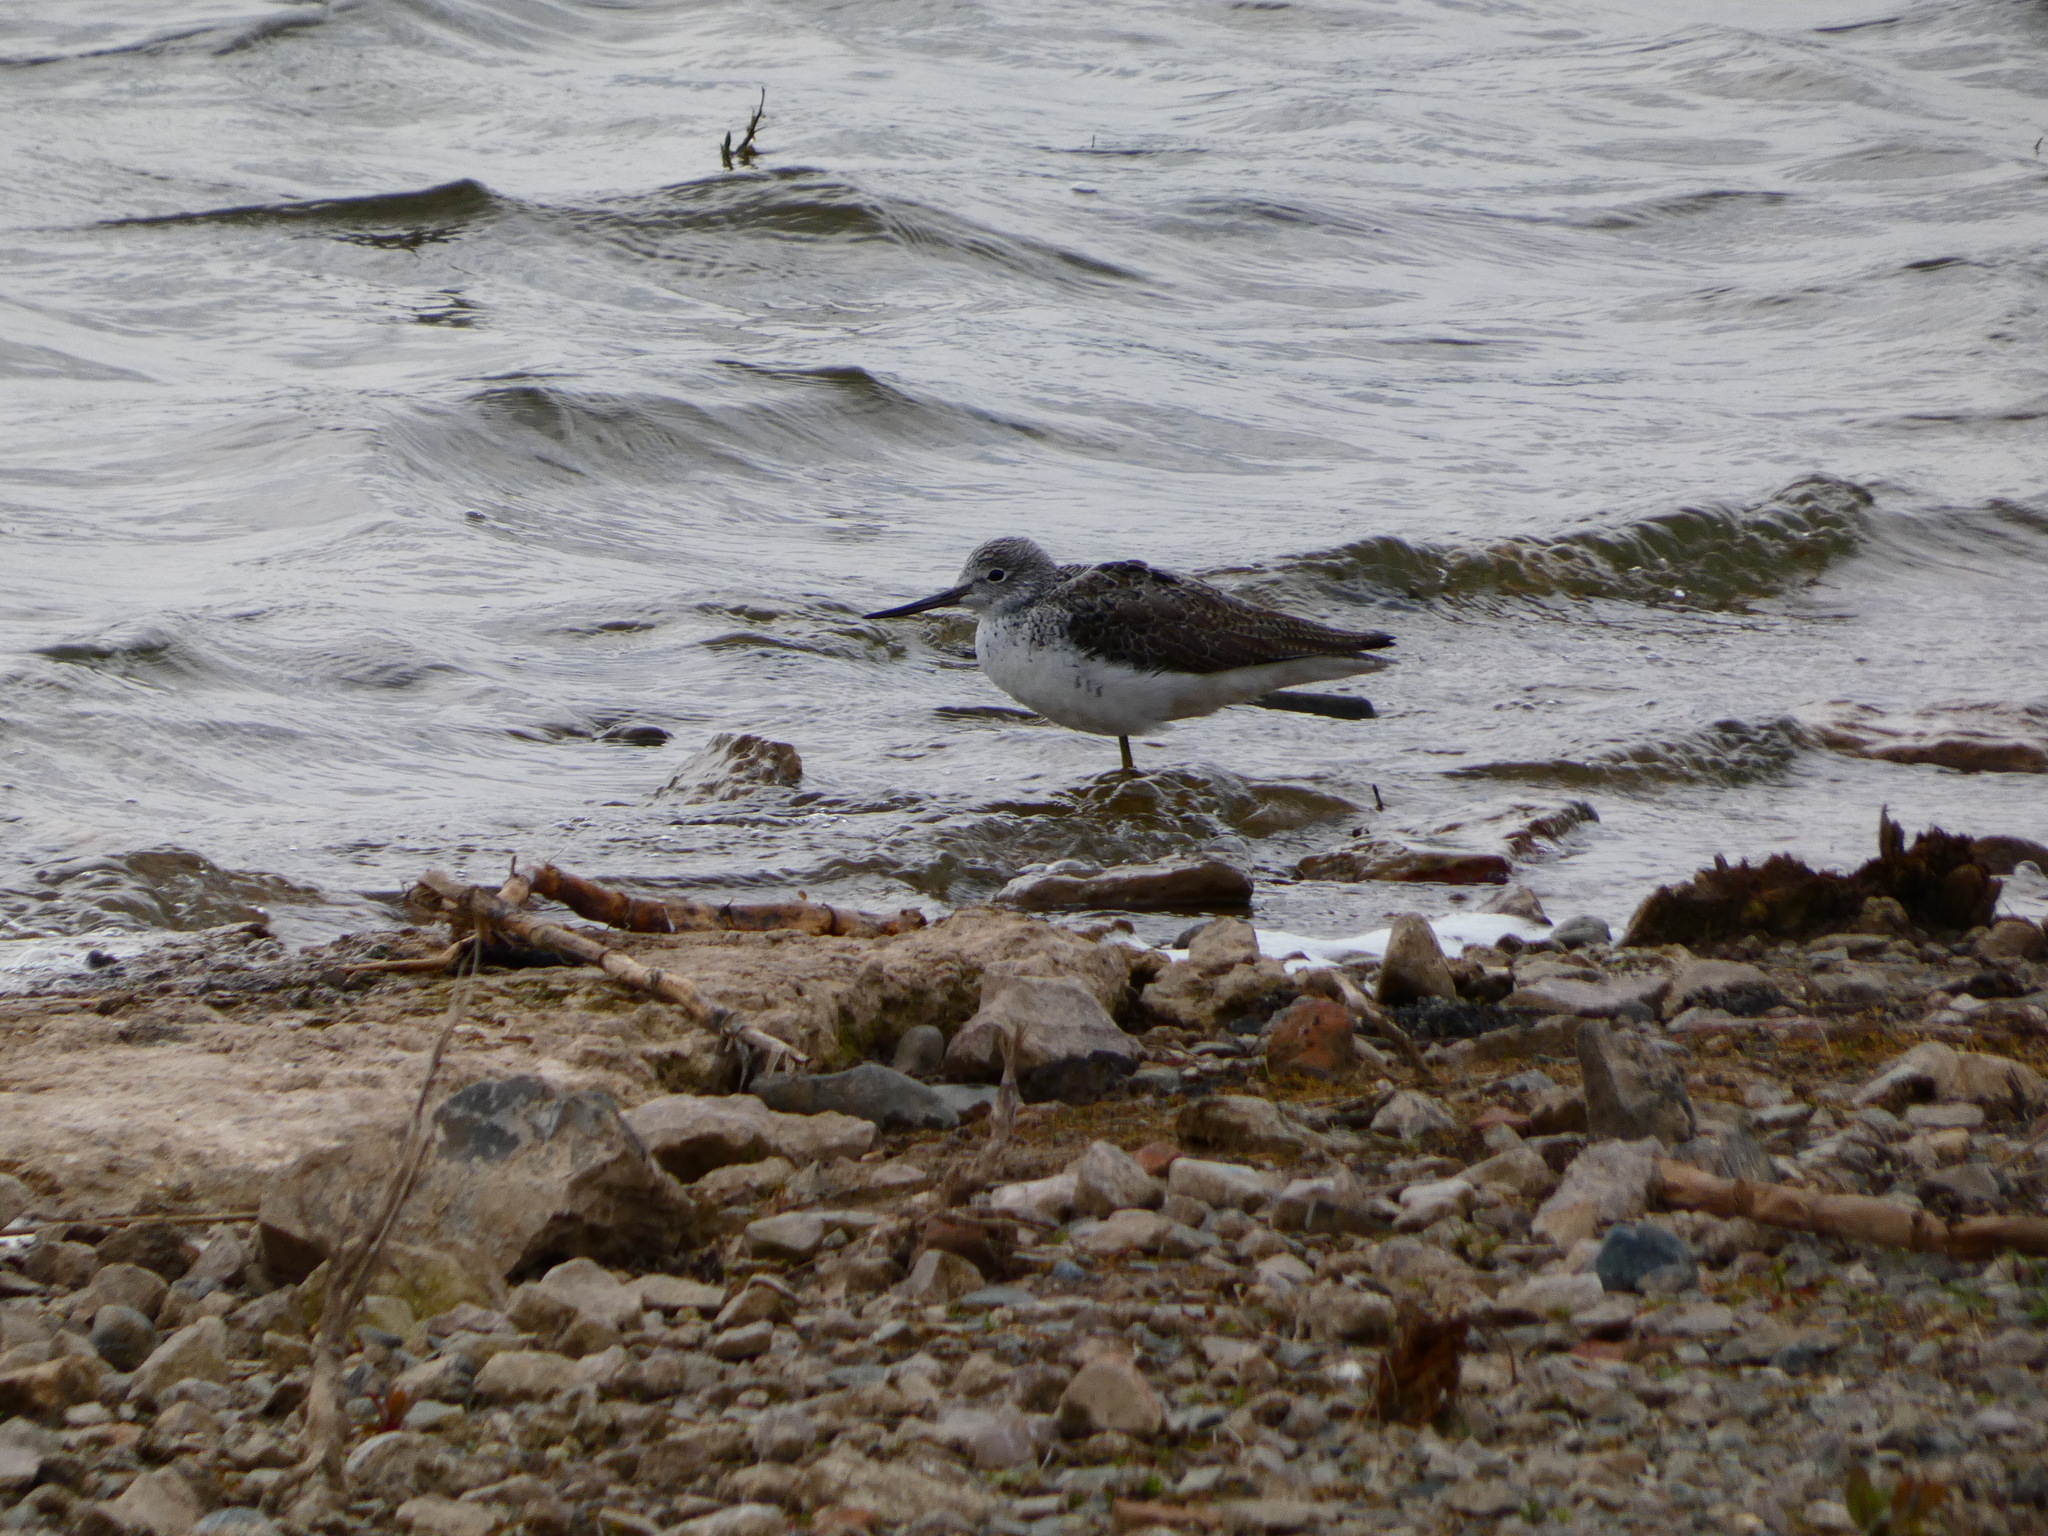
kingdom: Animalia
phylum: Chordata
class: Aves
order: Charadriiformes
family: Scolopacidae
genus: Tringa
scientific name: Tringa nebularia
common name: Common greenshank
